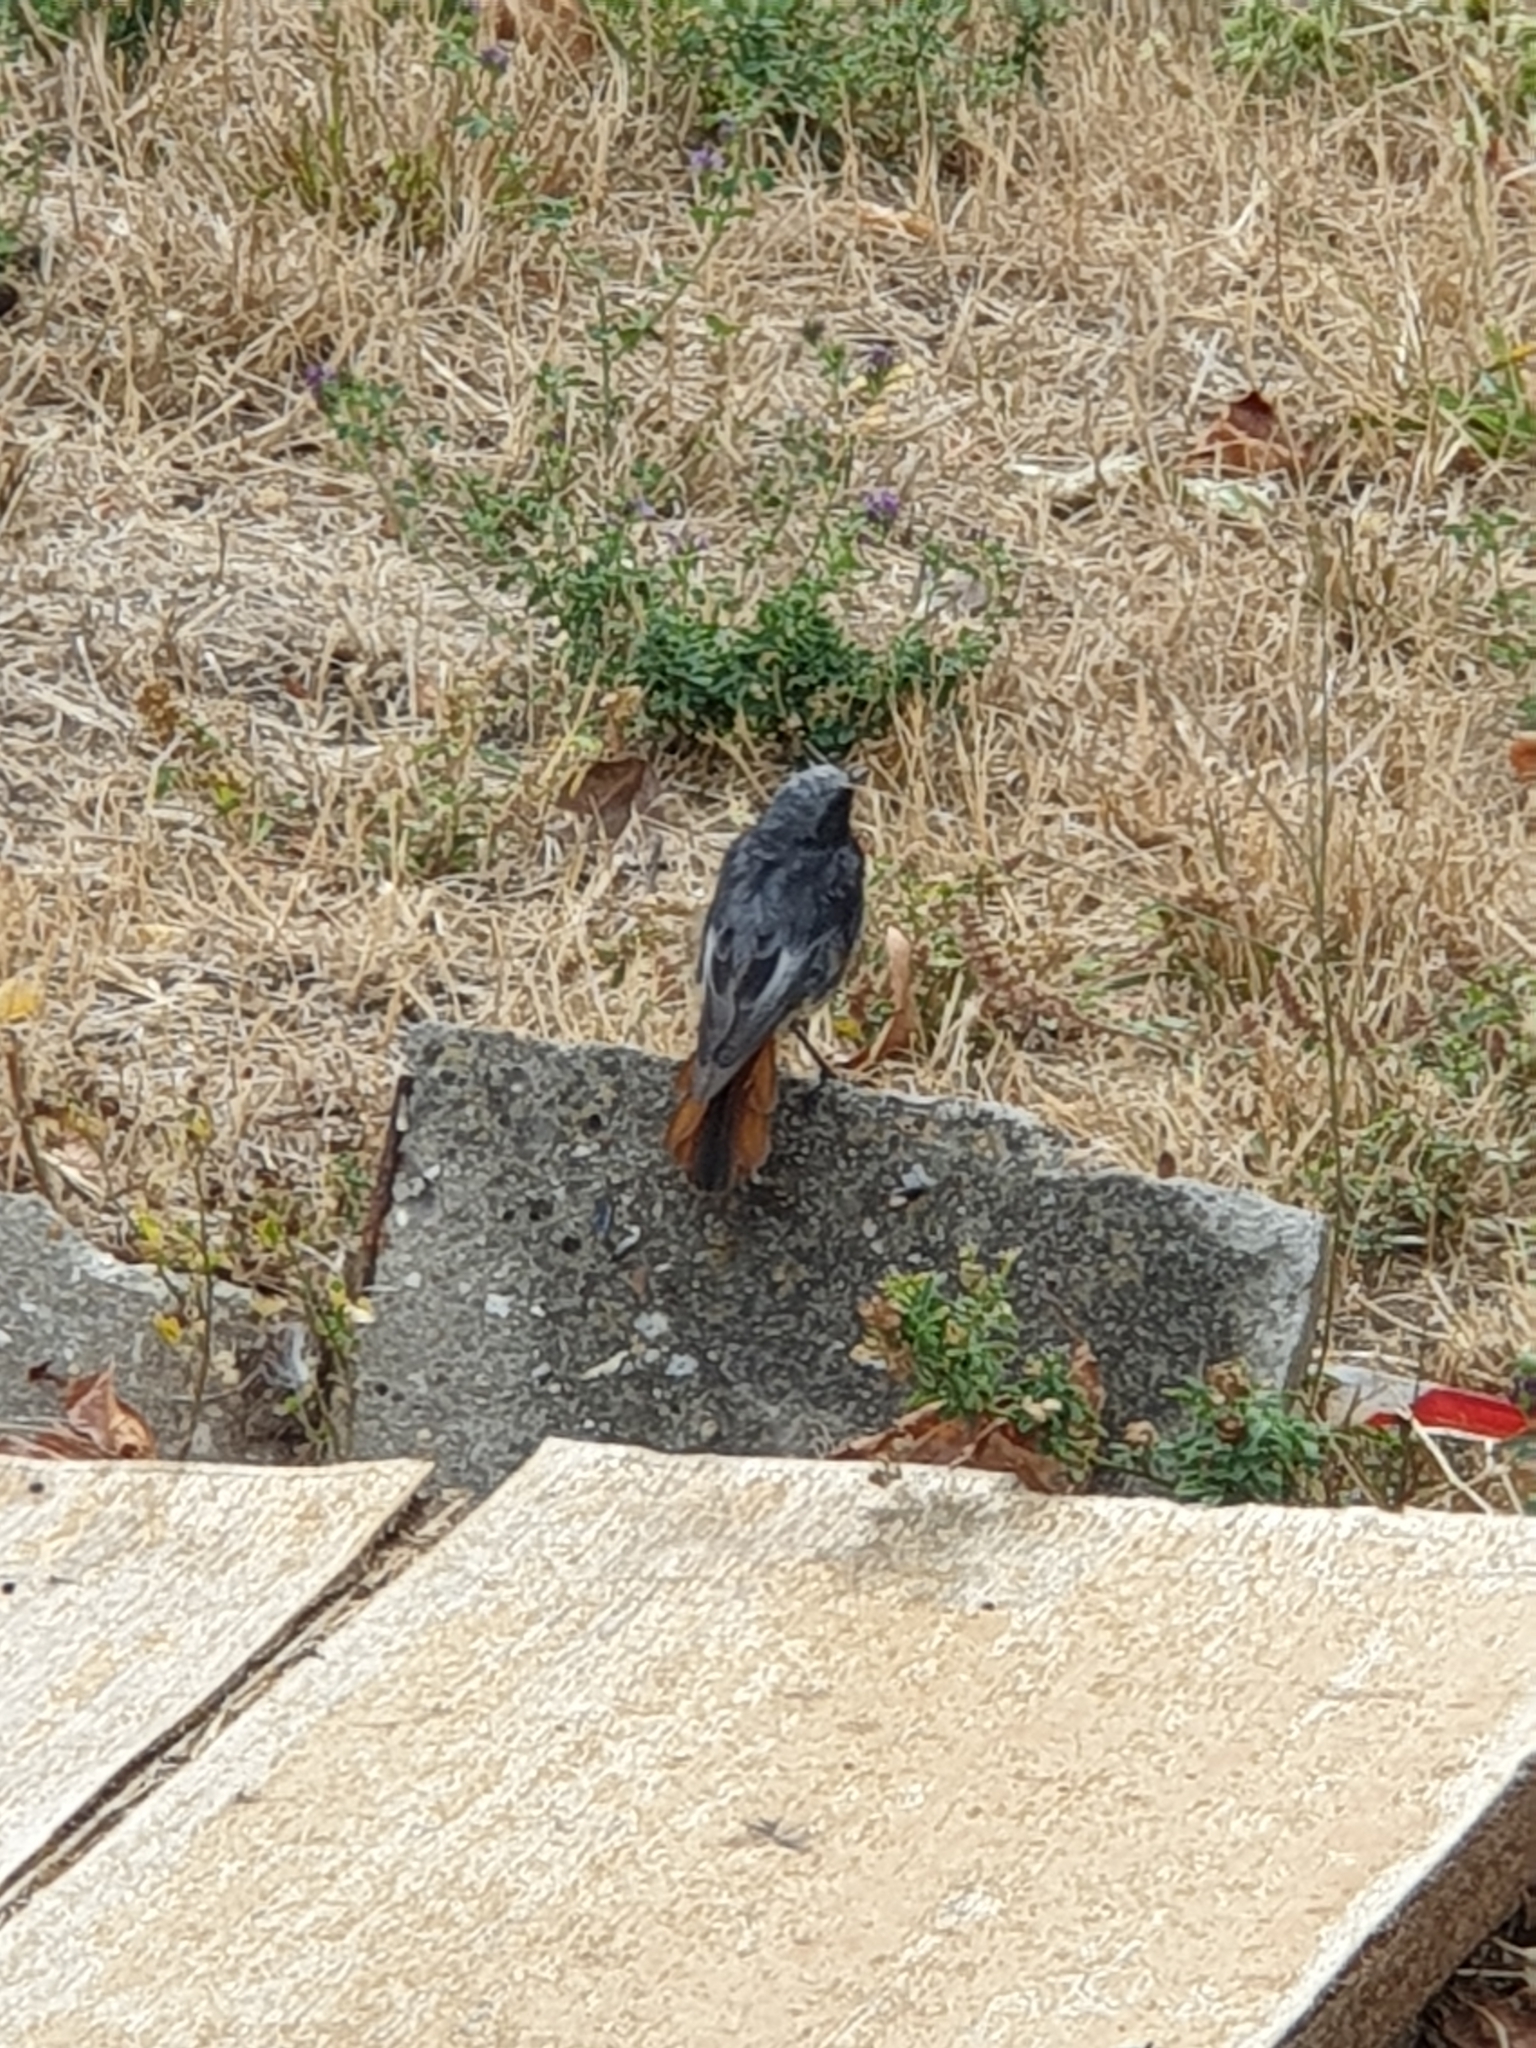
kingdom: Animalia
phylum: Chordata
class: Aves
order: Passeriformes
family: Muscicapidae
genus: Phoenicurus
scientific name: Phoenicurus ochruros
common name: Black redstart
